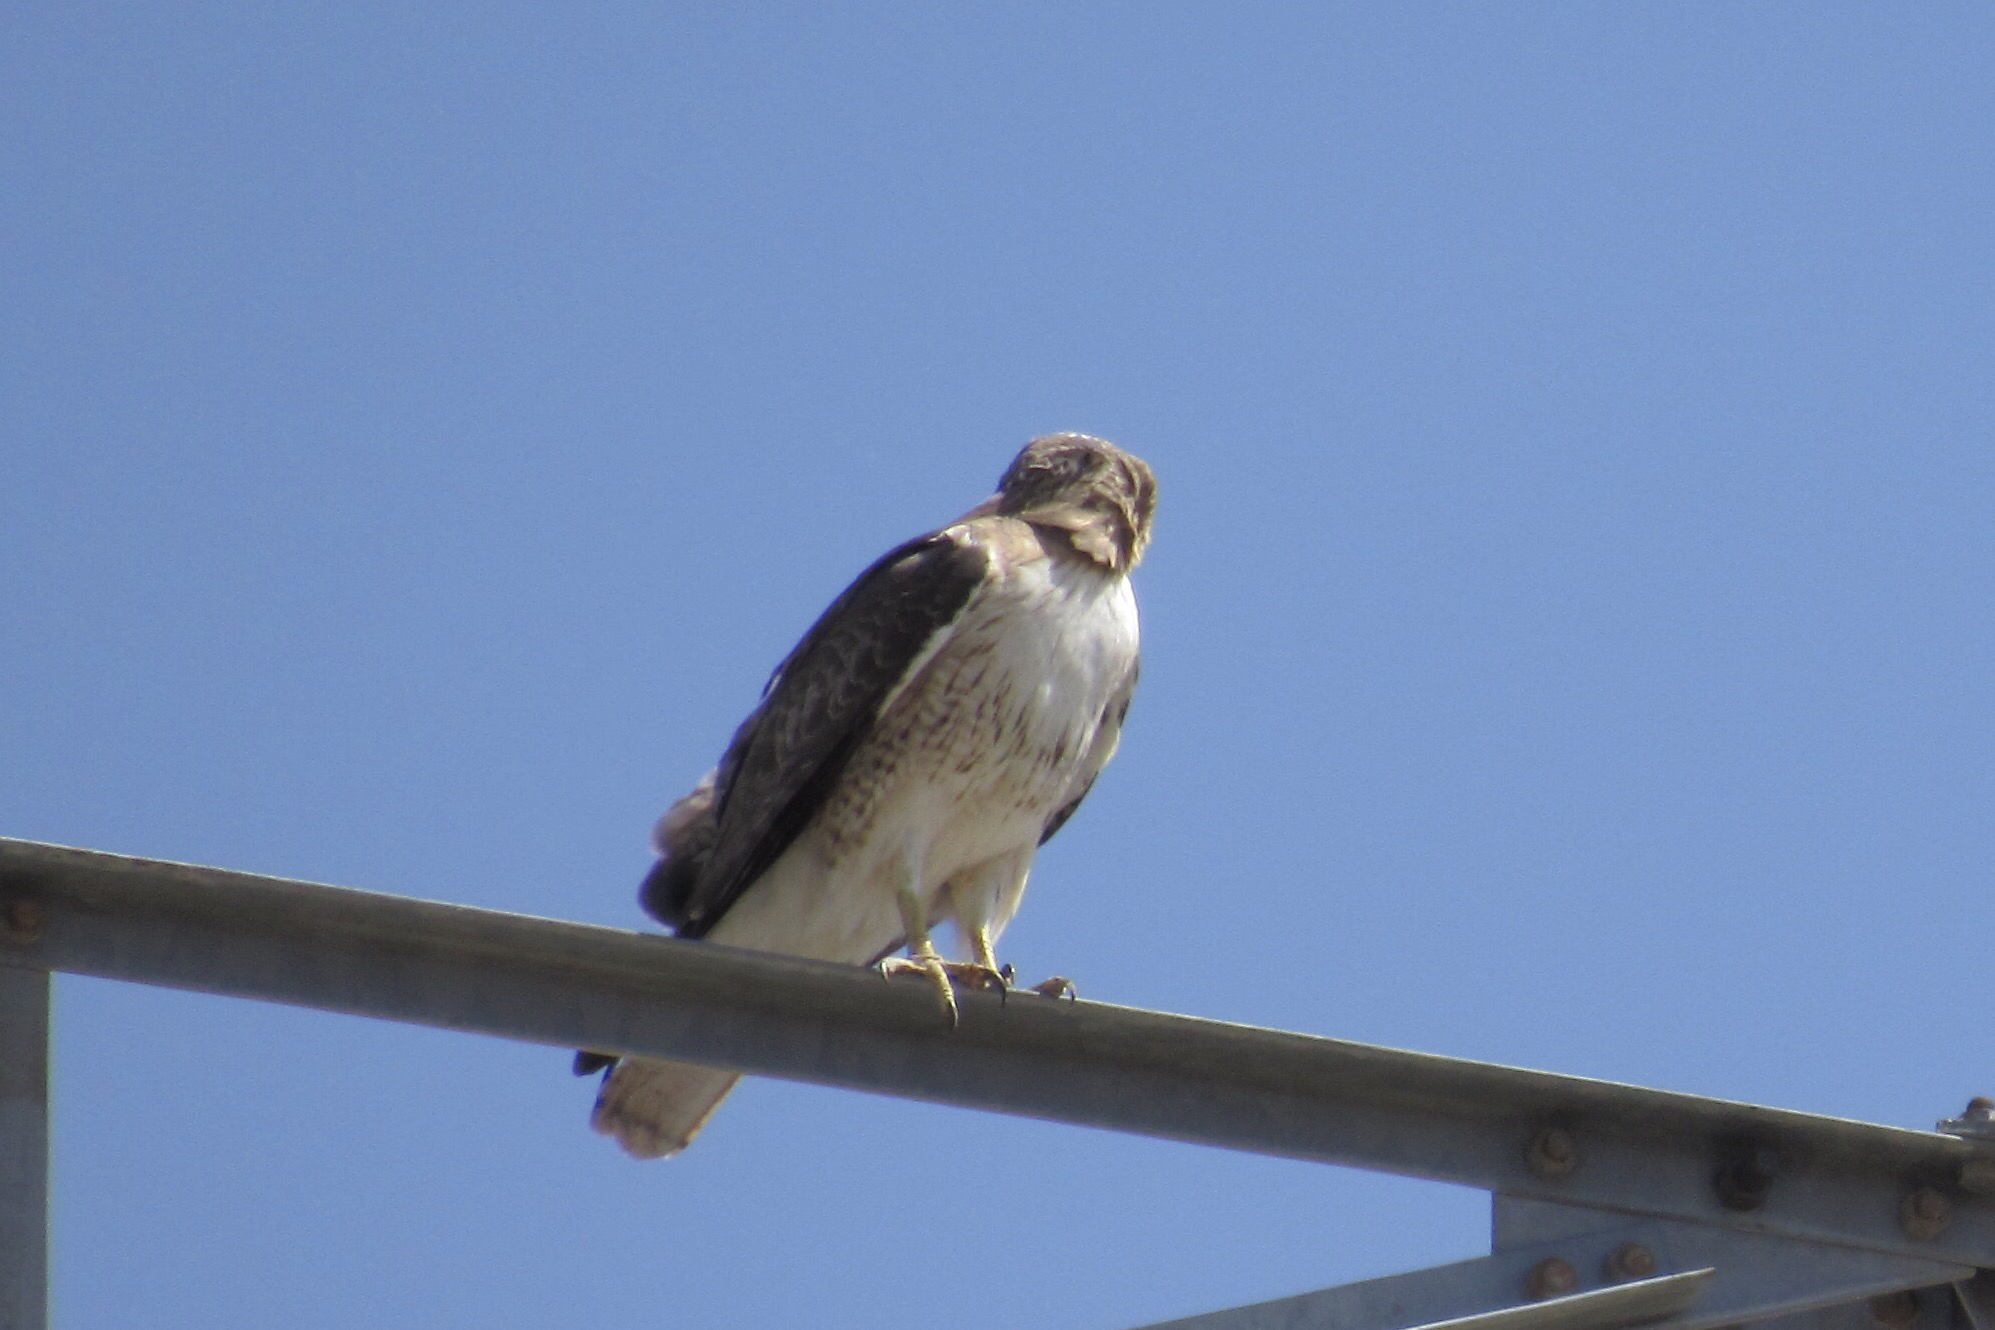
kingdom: Animalia
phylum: Chordata
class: Aves
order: Accipitriformes
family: Accipitridae
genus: Buteo
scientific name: Buteo jamaicensis
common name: Red-tailed hawk
